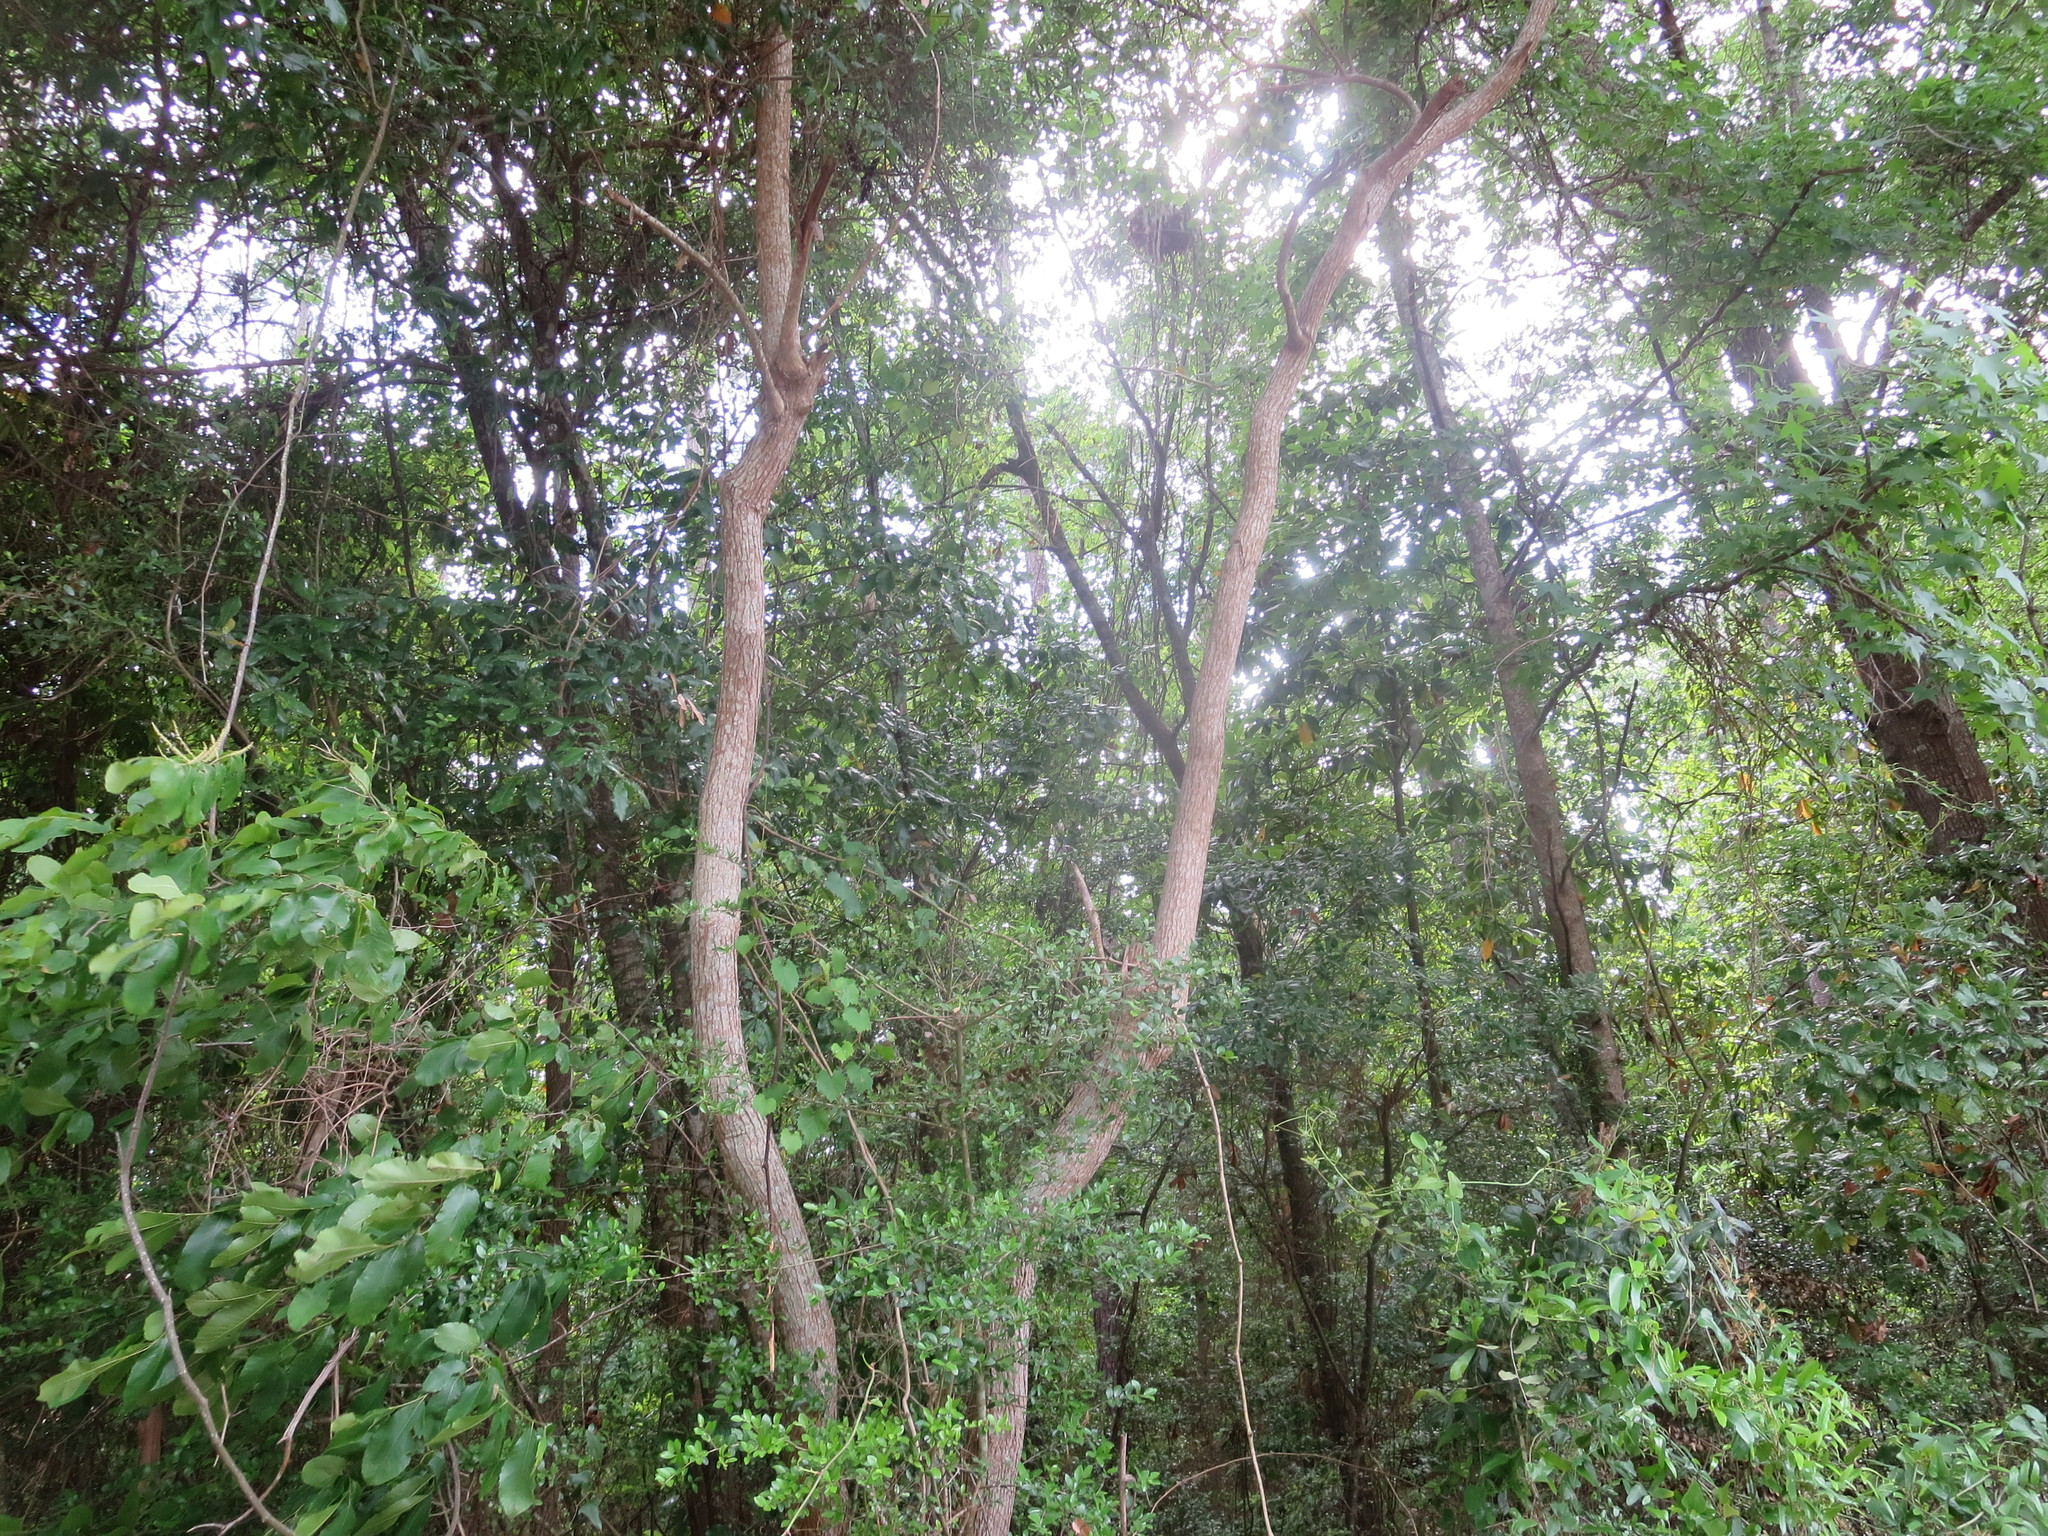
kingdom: Plantae
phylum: Tracheophyta
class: Magnoliopsida
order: Malpighiales
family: Euphorbiaceae
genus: Triadica
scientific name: Triadica sebifera
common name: Chinese tallow
